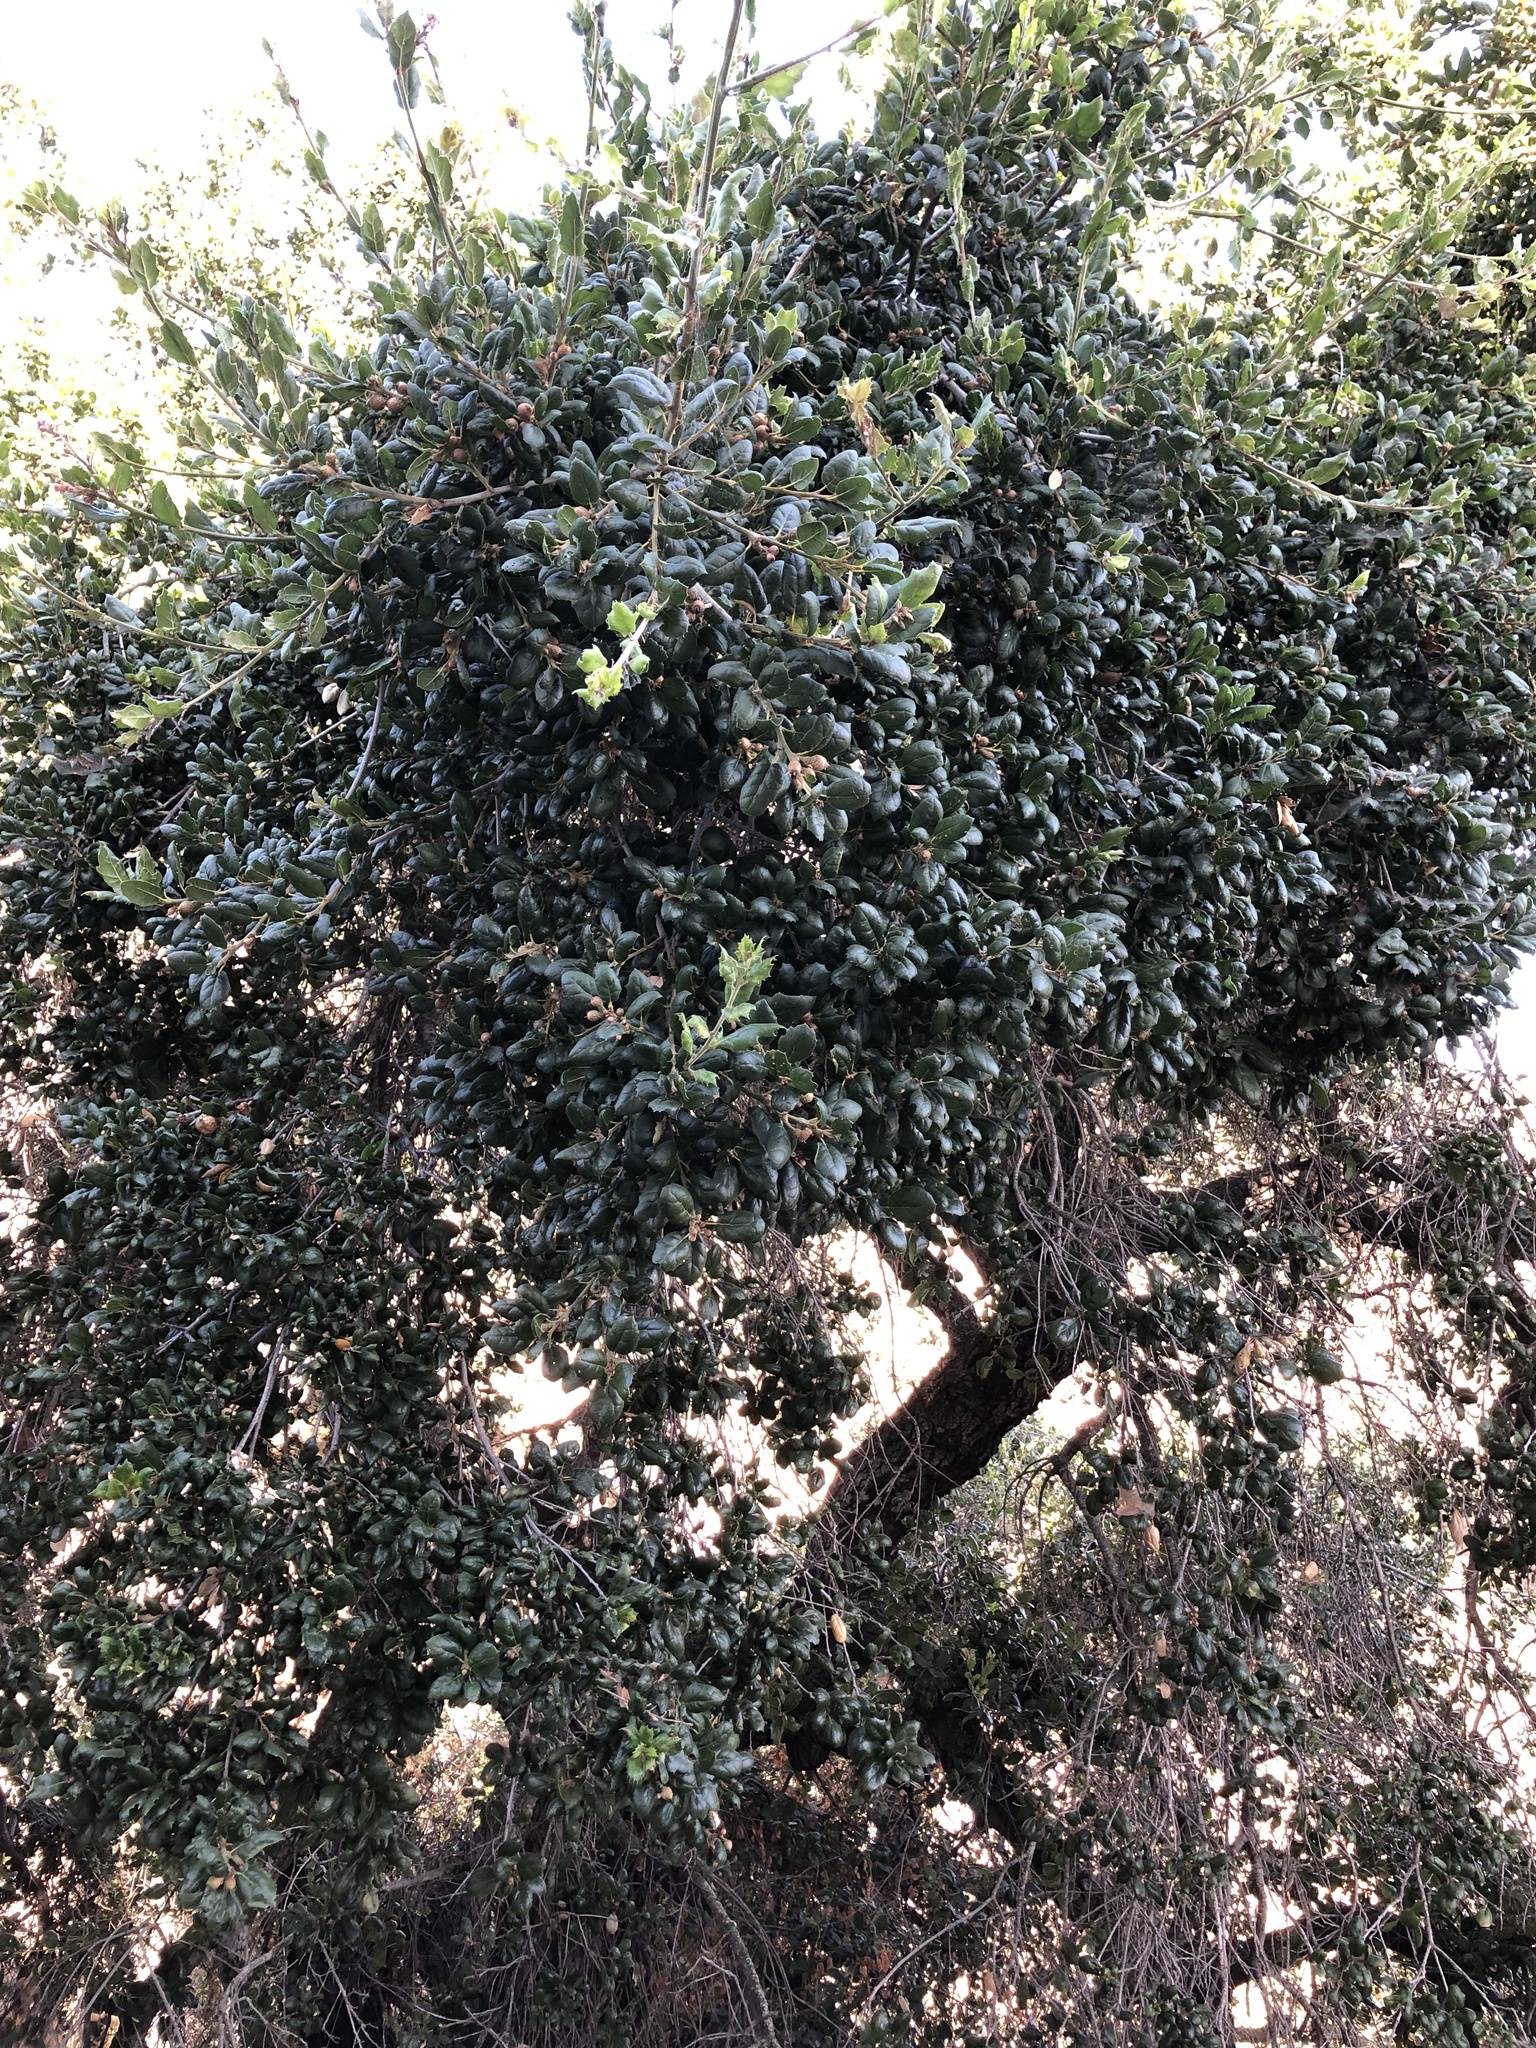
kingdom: Plantae
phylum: Tracheophyta
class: Magnoliopsida
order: Fagales
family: Fagaceae
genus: Quercus
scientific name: Quercus agrifolia
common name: California live oak
